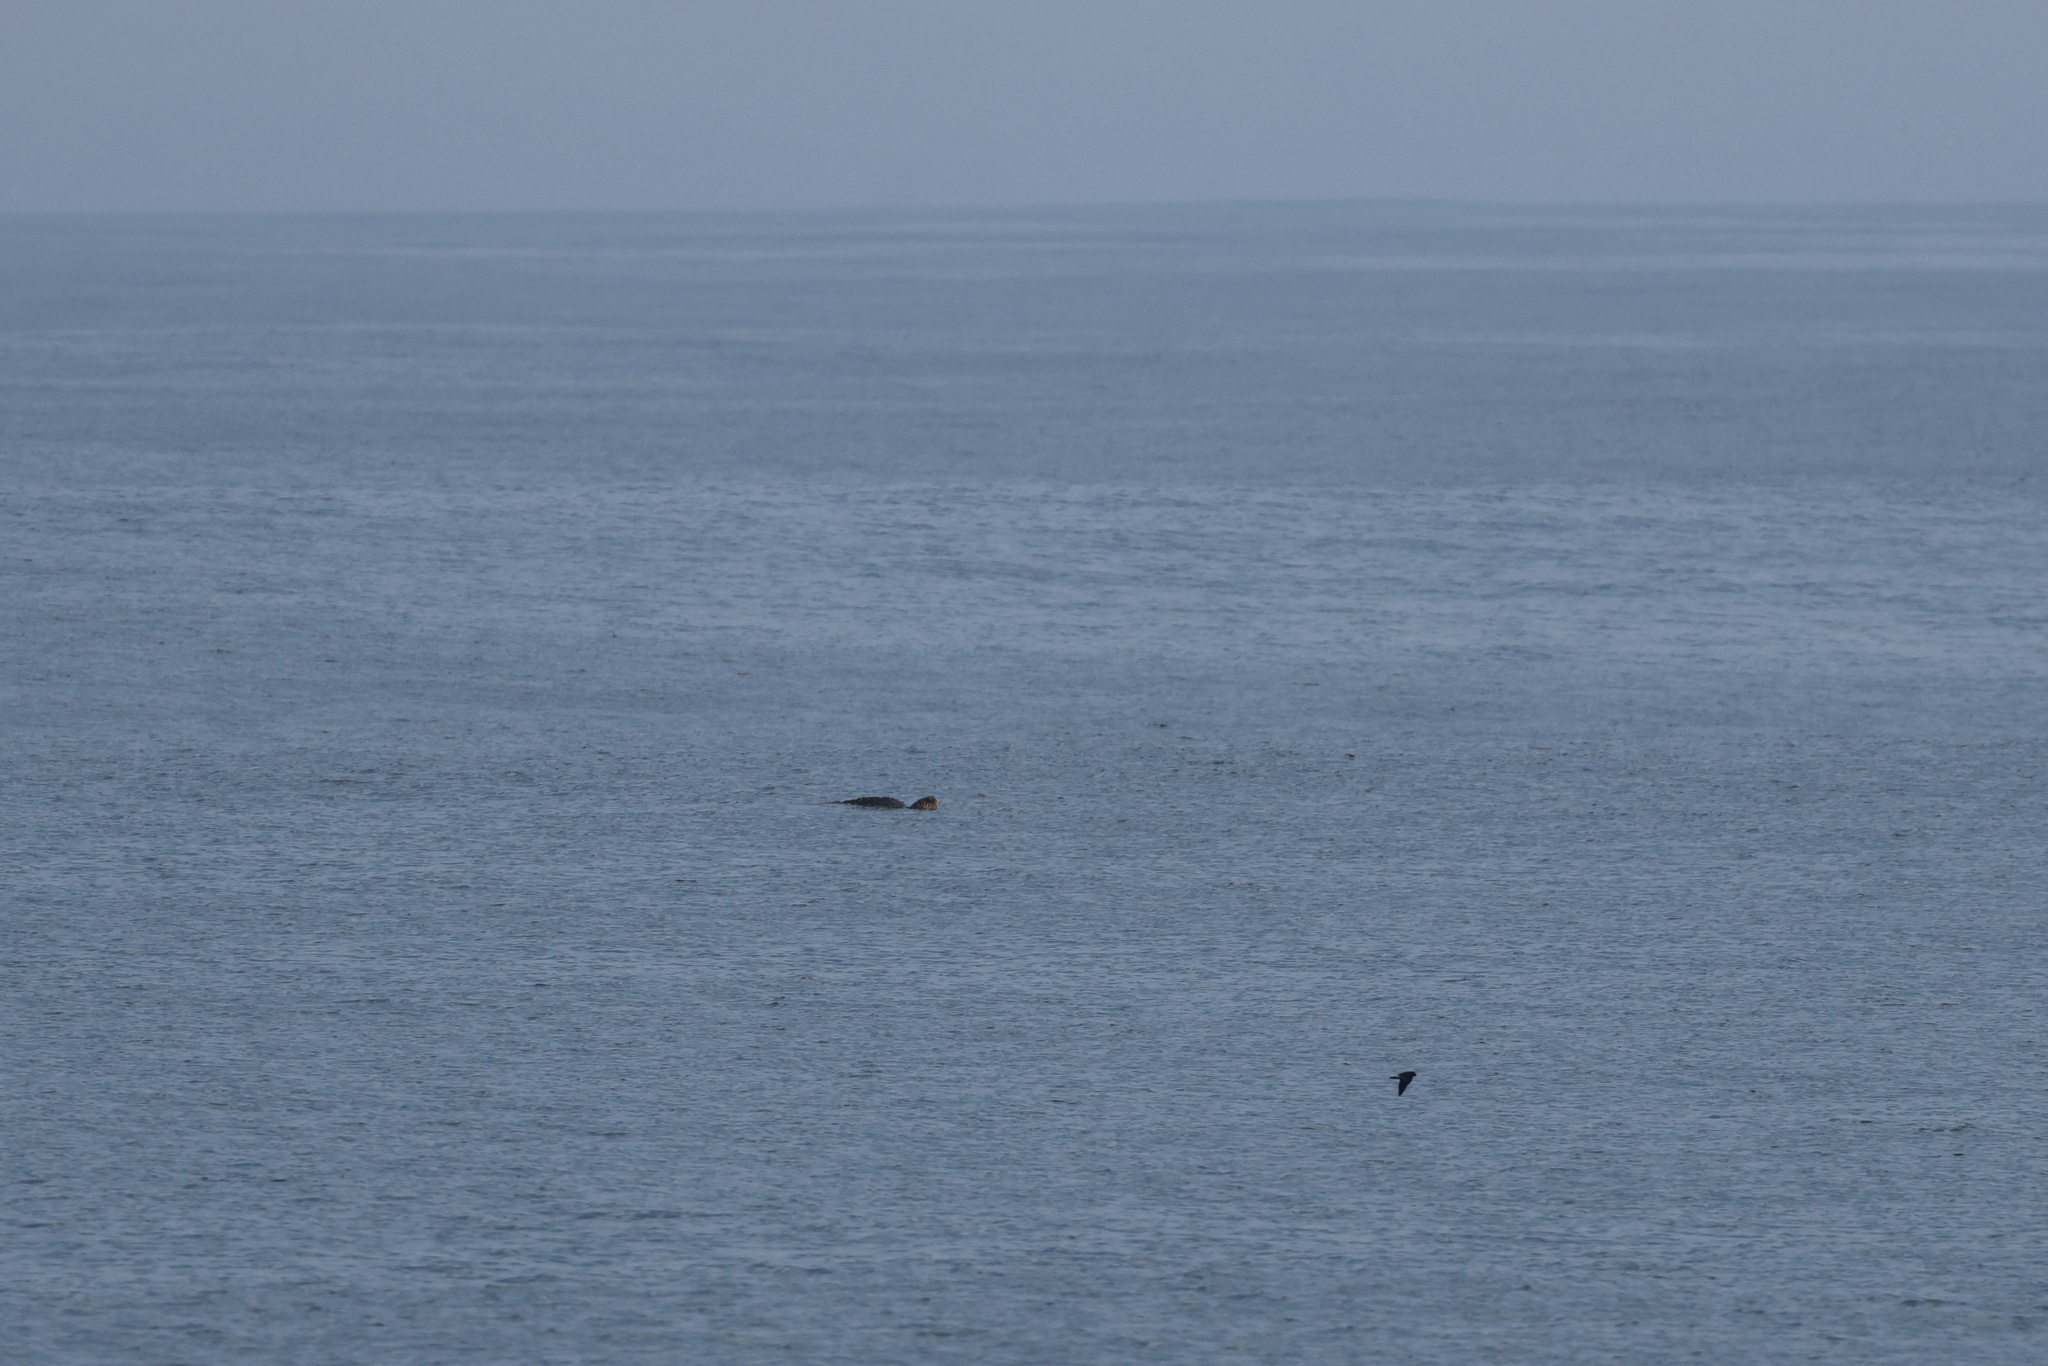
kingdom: Animalia
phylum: Chordata
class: Testudines
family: Cheloniidae
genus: Caretta
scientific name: Caretta caretta
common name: Loggerhead sea turtle
